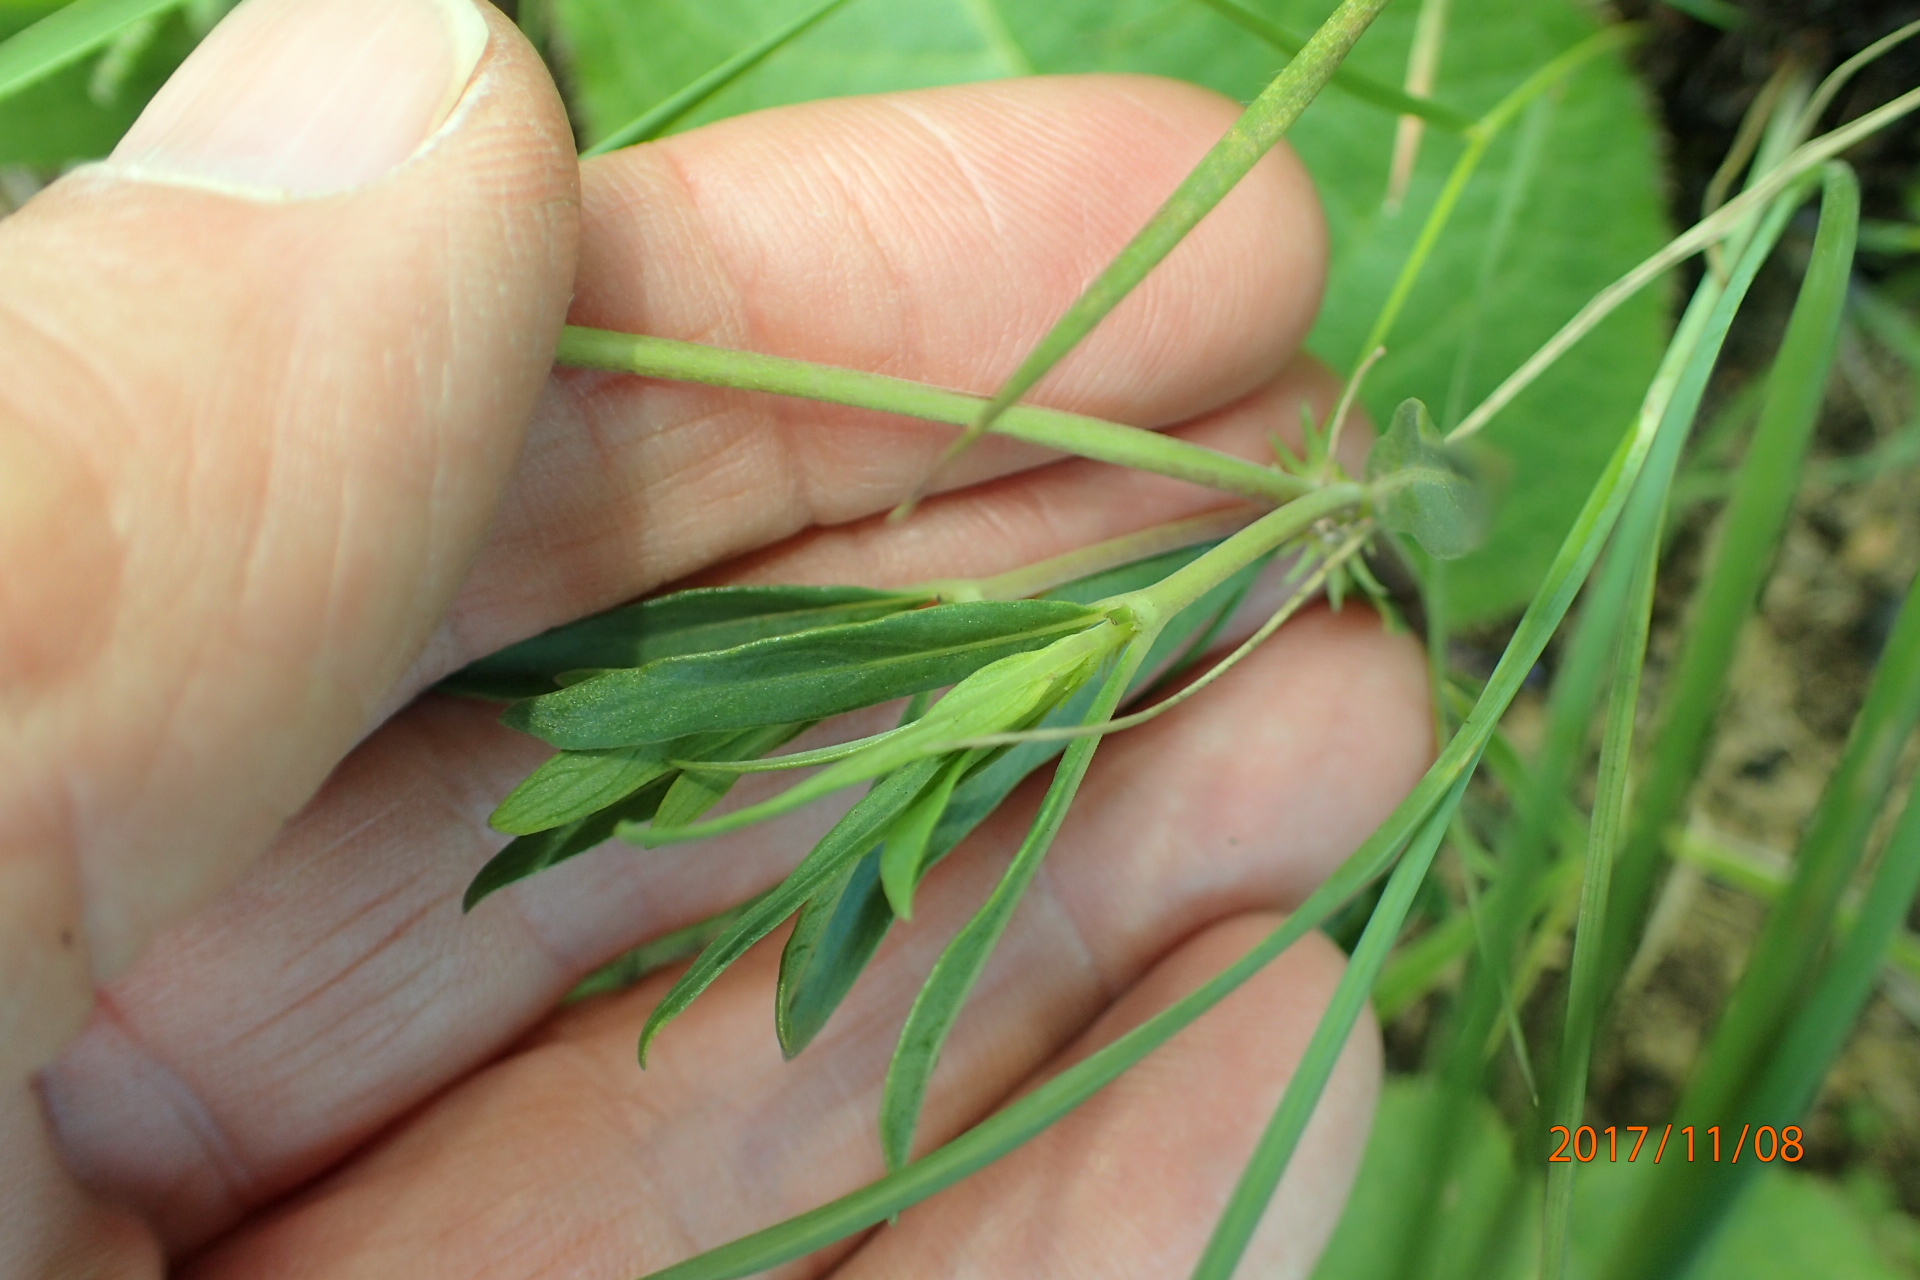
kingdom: Plantae
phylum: Tracheophyta
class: Magnoliopsida
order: Gentianales
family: Rubiaceae
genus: Pentanisia
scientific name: Pentanisia angustifolia
